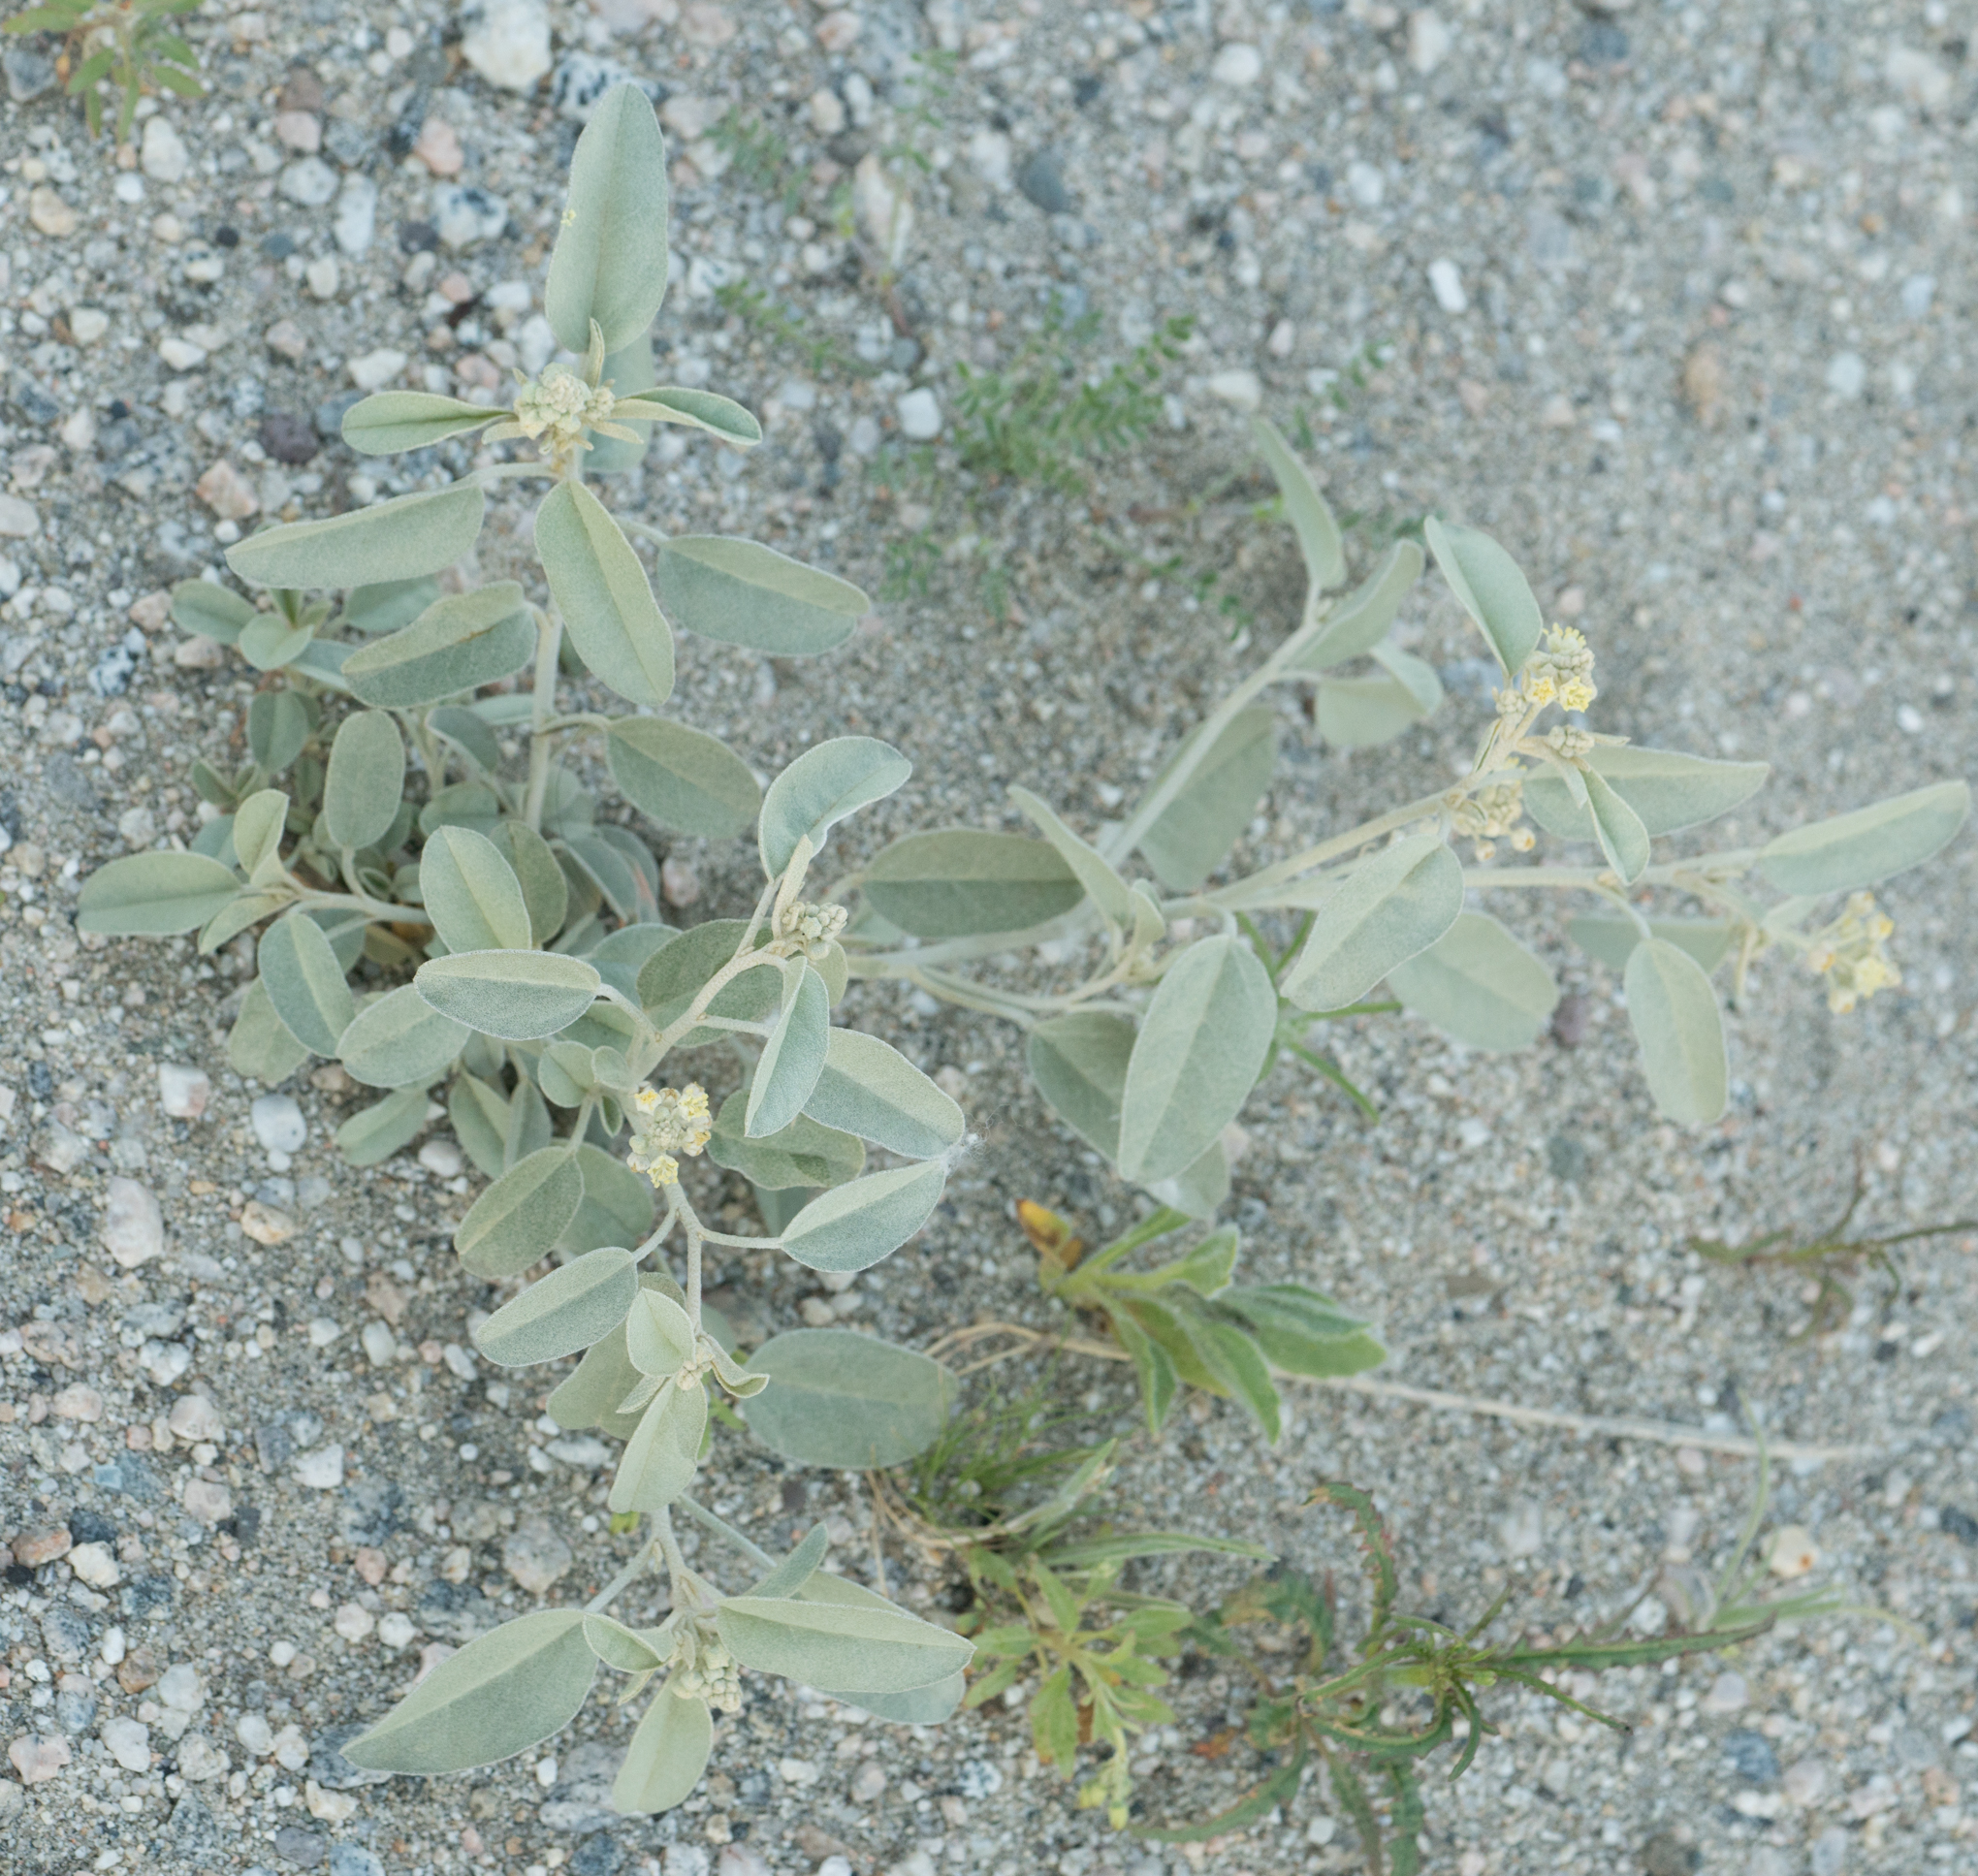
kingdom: Plantae
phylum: Tracheophyta
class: Magnoliopsida
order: Malpighiales
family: Euphorbiaceae
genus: Croton
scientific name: Croton californicus
